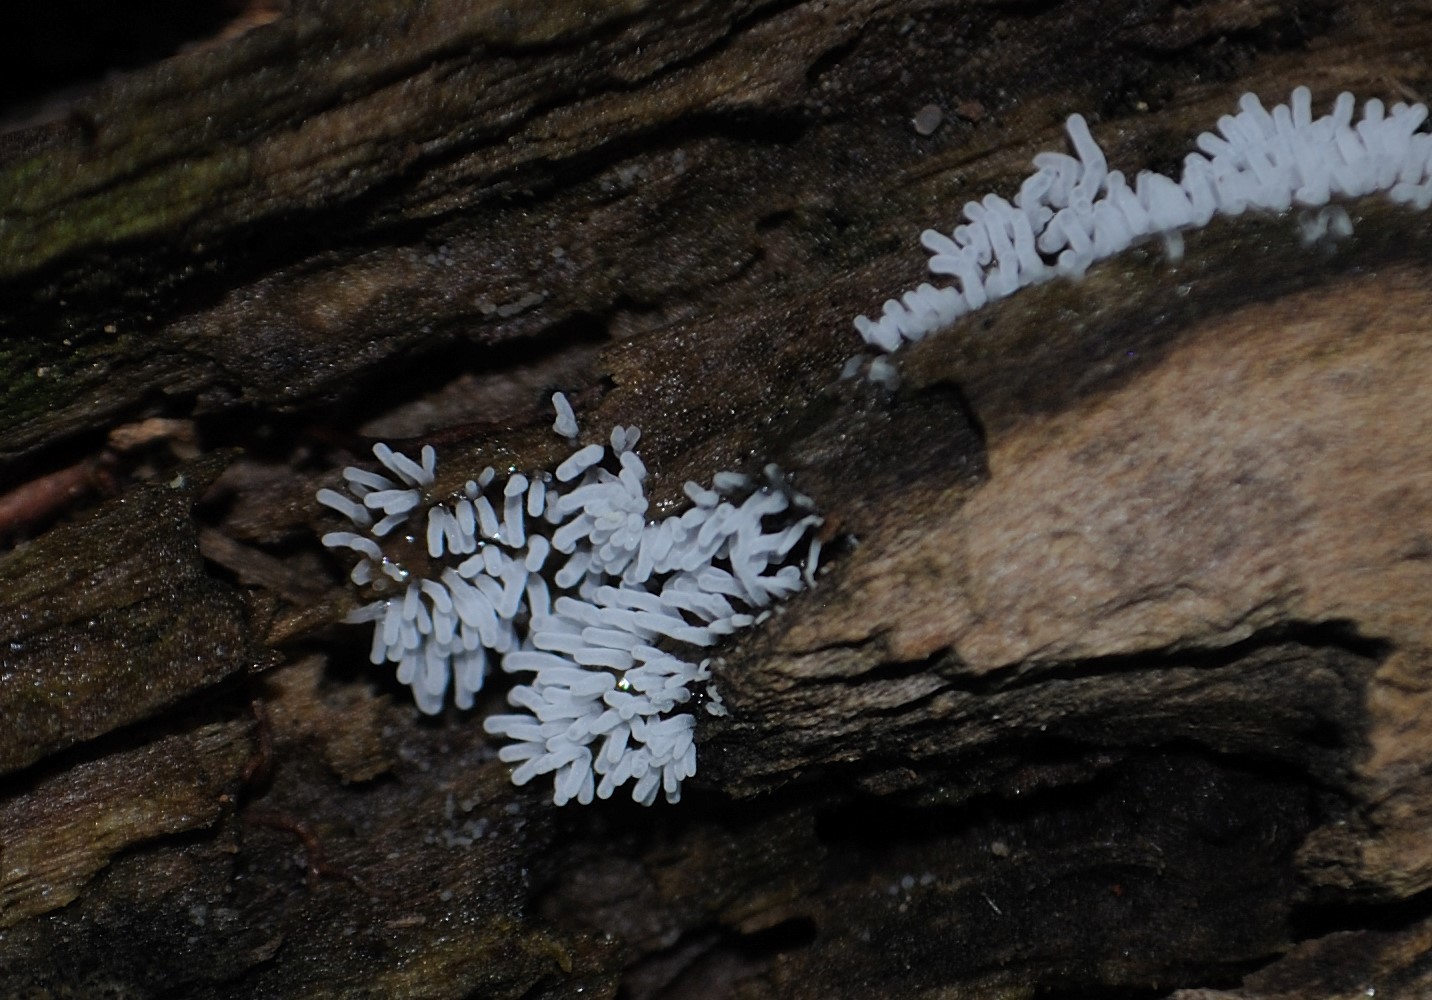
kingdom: Protozoa
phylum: Mycetozoa
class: Protosteliomycetes
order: Ceratiomyxales
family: Ceratiomyxaceae
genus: Ceratiomyxa
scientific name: Ceratiomyxa fruticulosa
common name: Honeycomb coral slime mold
